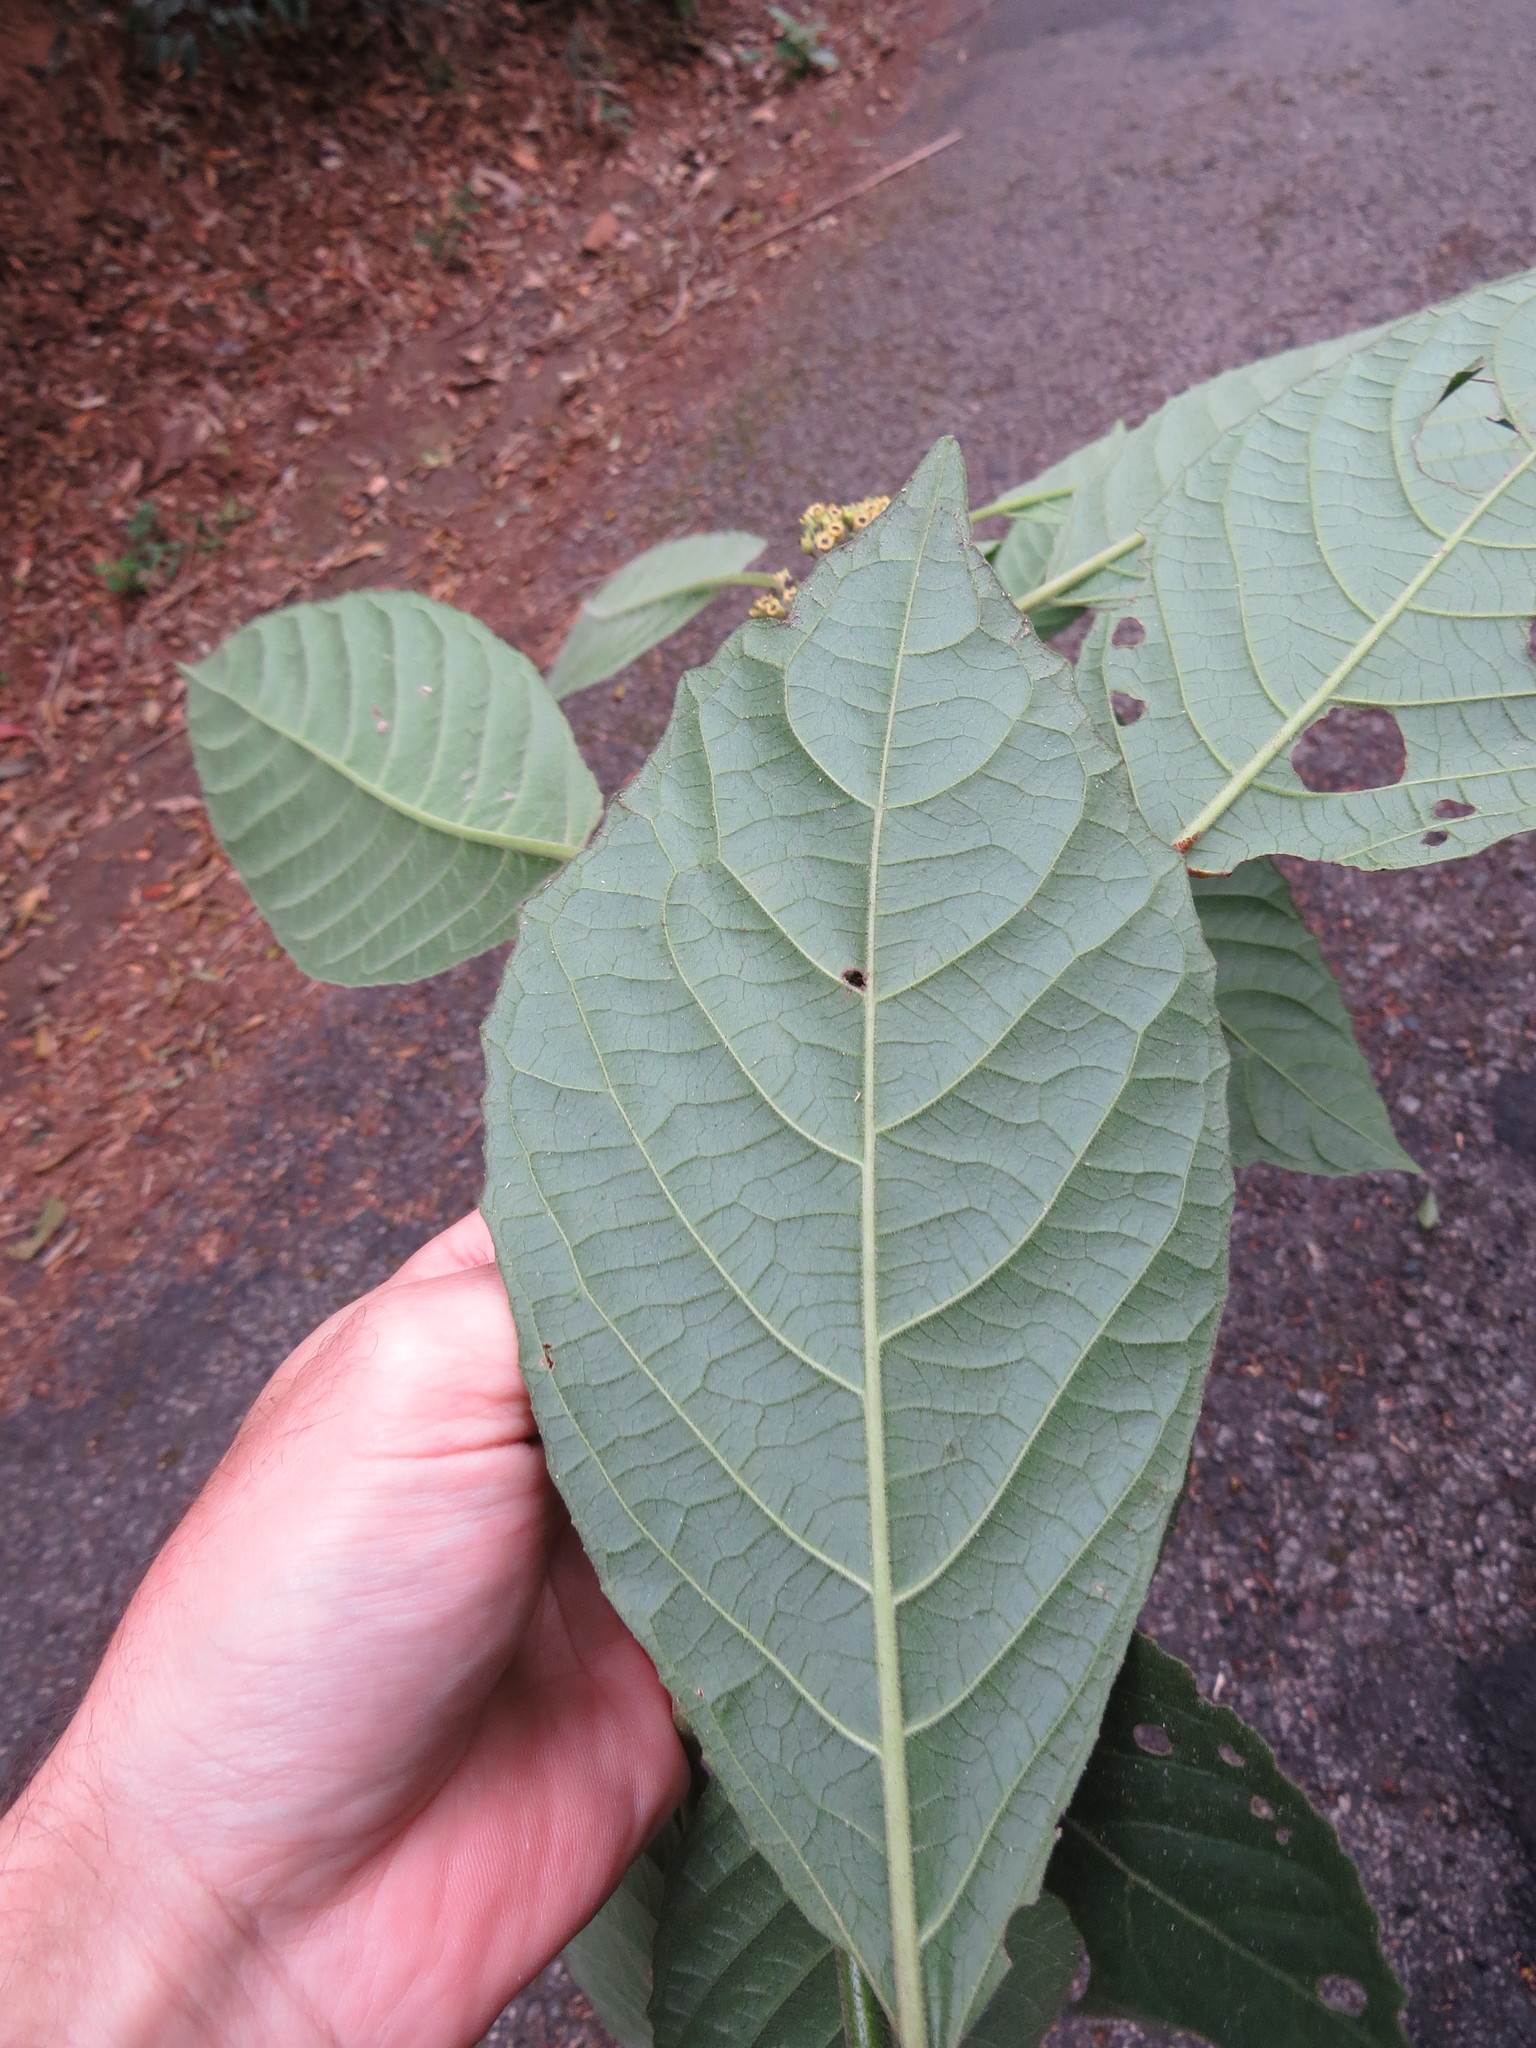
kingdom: Plantae
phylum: Tracheophyta
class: Magnoliopsida
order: Laurales
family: Siparunaceae
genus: Siparuna
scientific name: Siparuna brasiliensis
